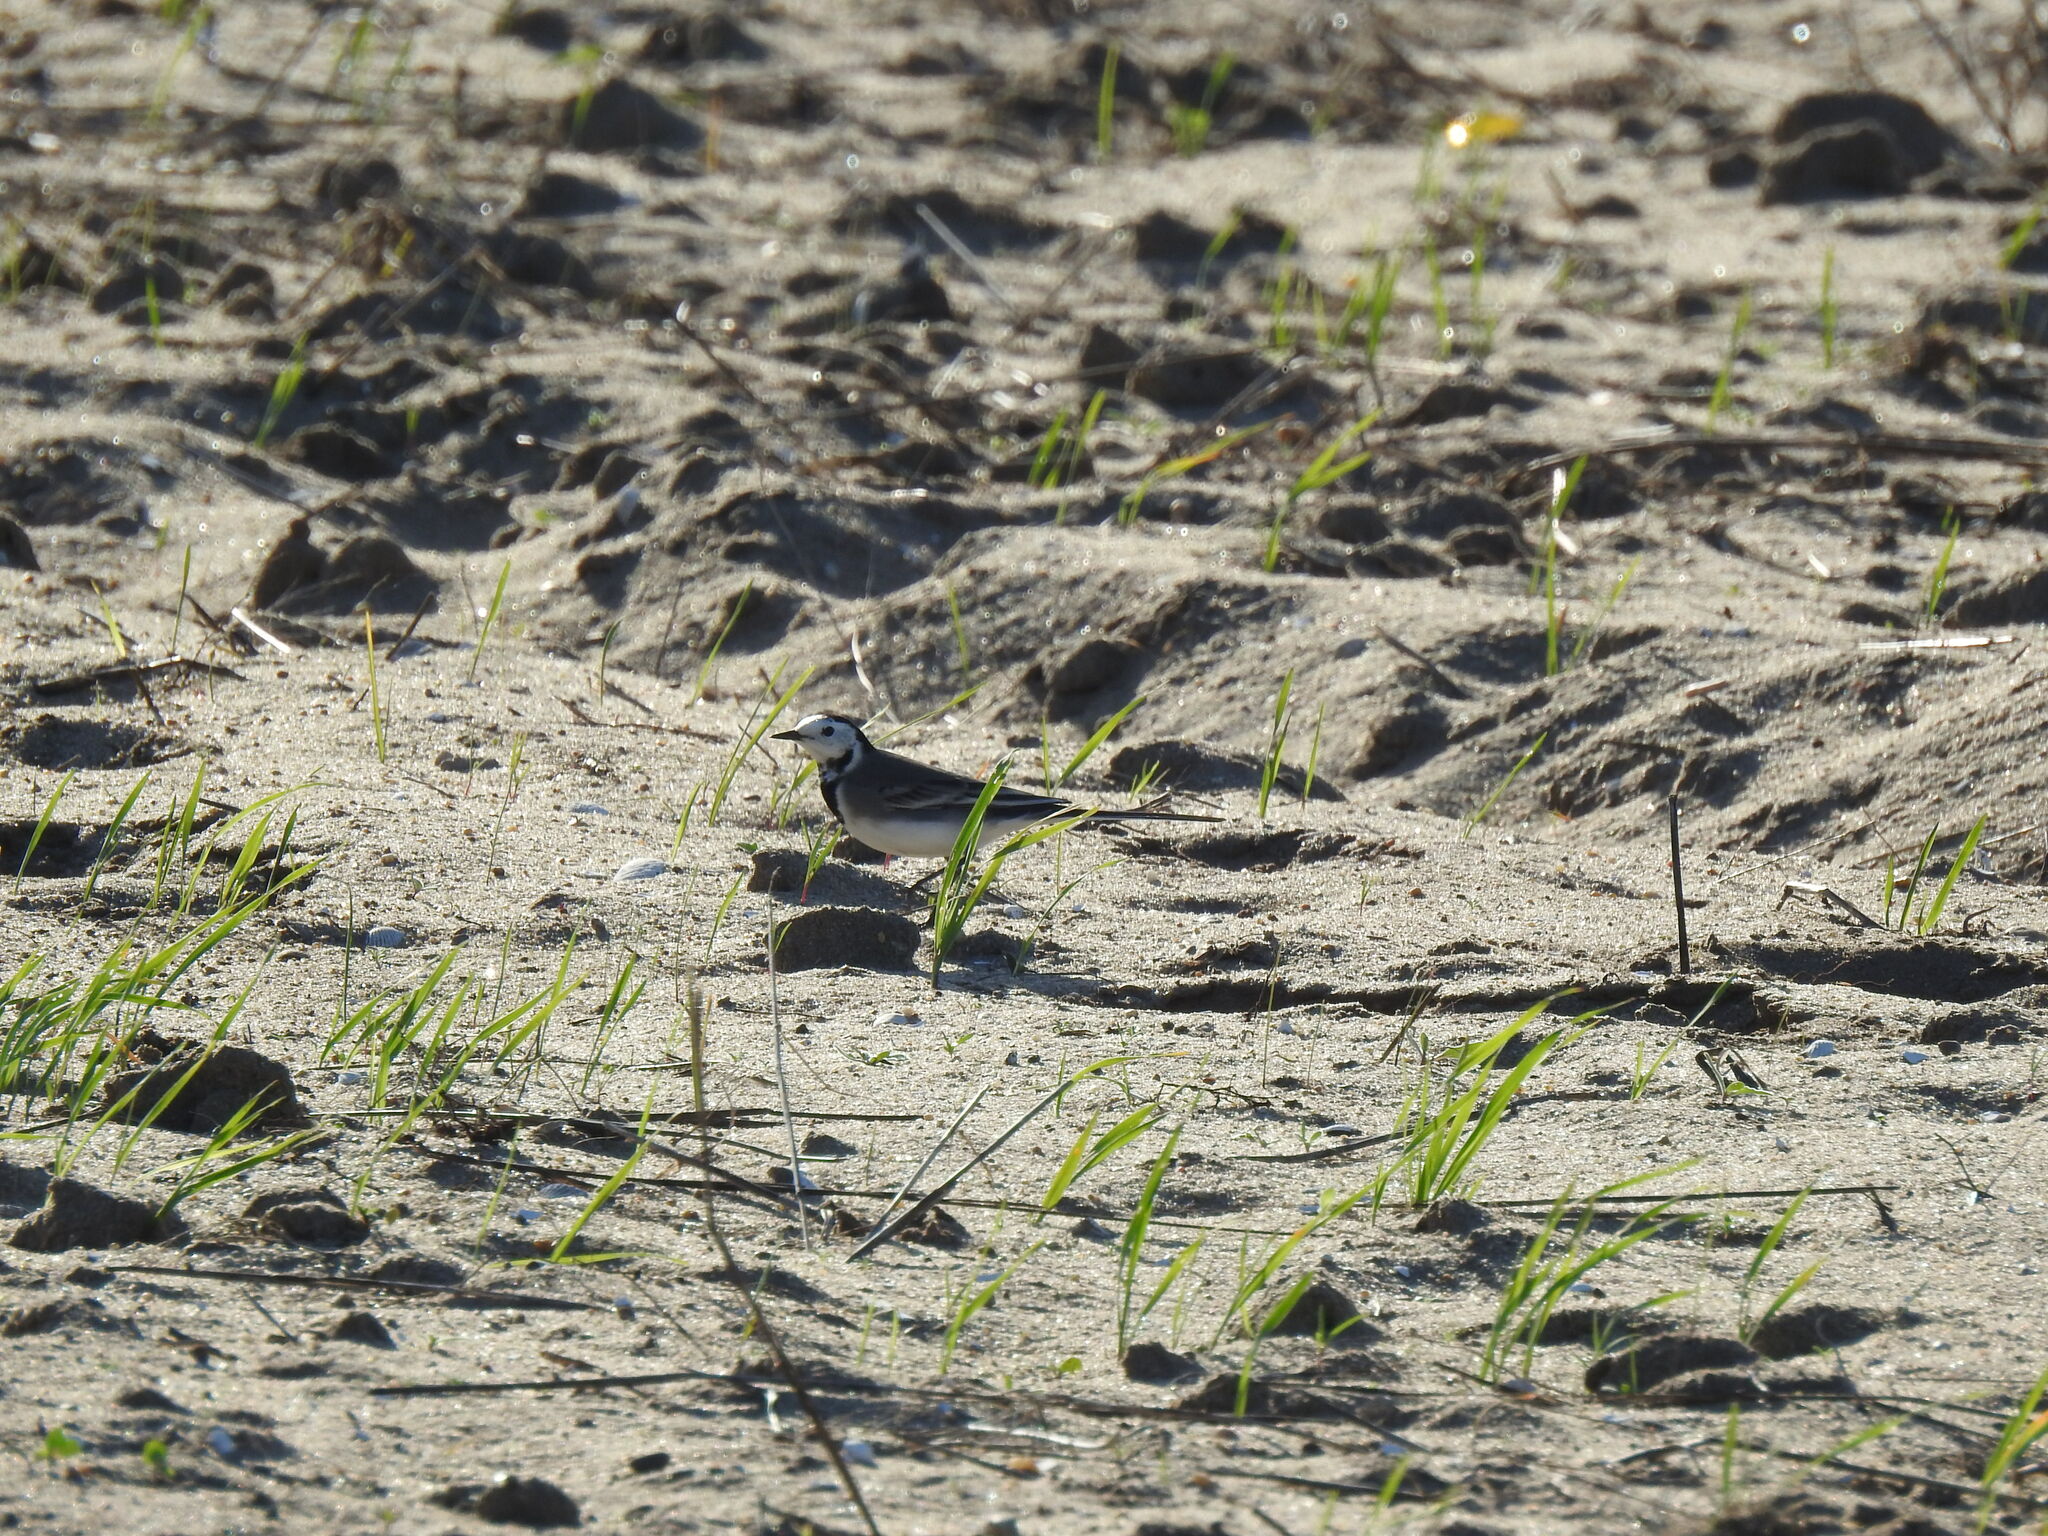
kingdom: Animalia
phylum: Chordata
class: Aves
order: Passeriformes
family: Motacillidae
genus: Motacilla
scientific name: Motacilla alba
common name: White wagtail
